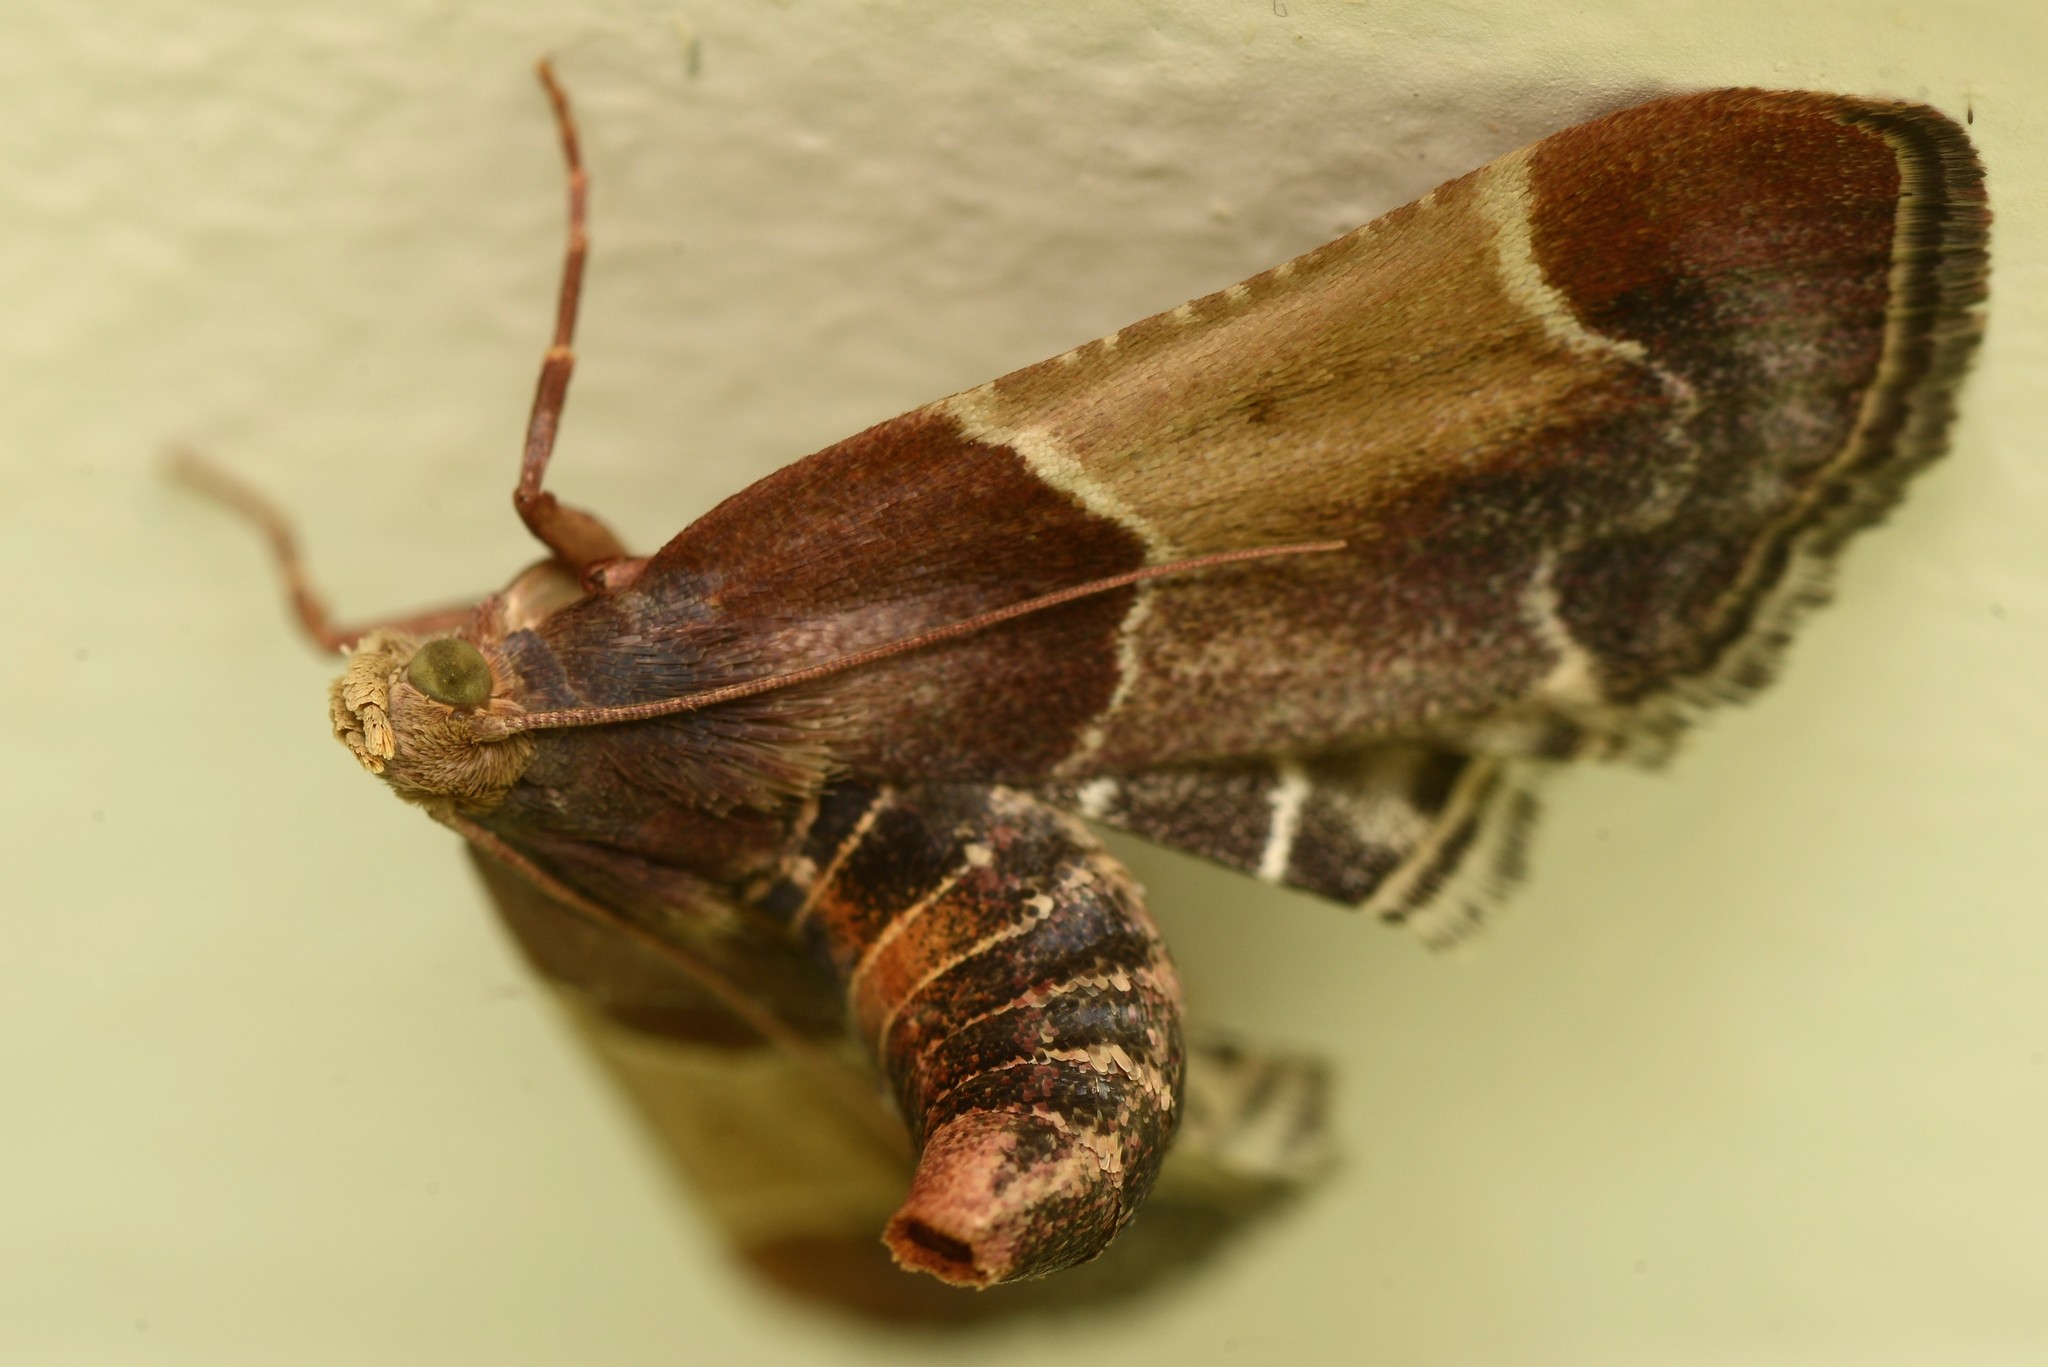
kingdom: Animalia
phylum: Arthropoda
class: Insecta
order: Lepidoptera
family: Pyralidae
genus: Pyralis
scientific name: Pyralis farinalis
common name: Meal moth
